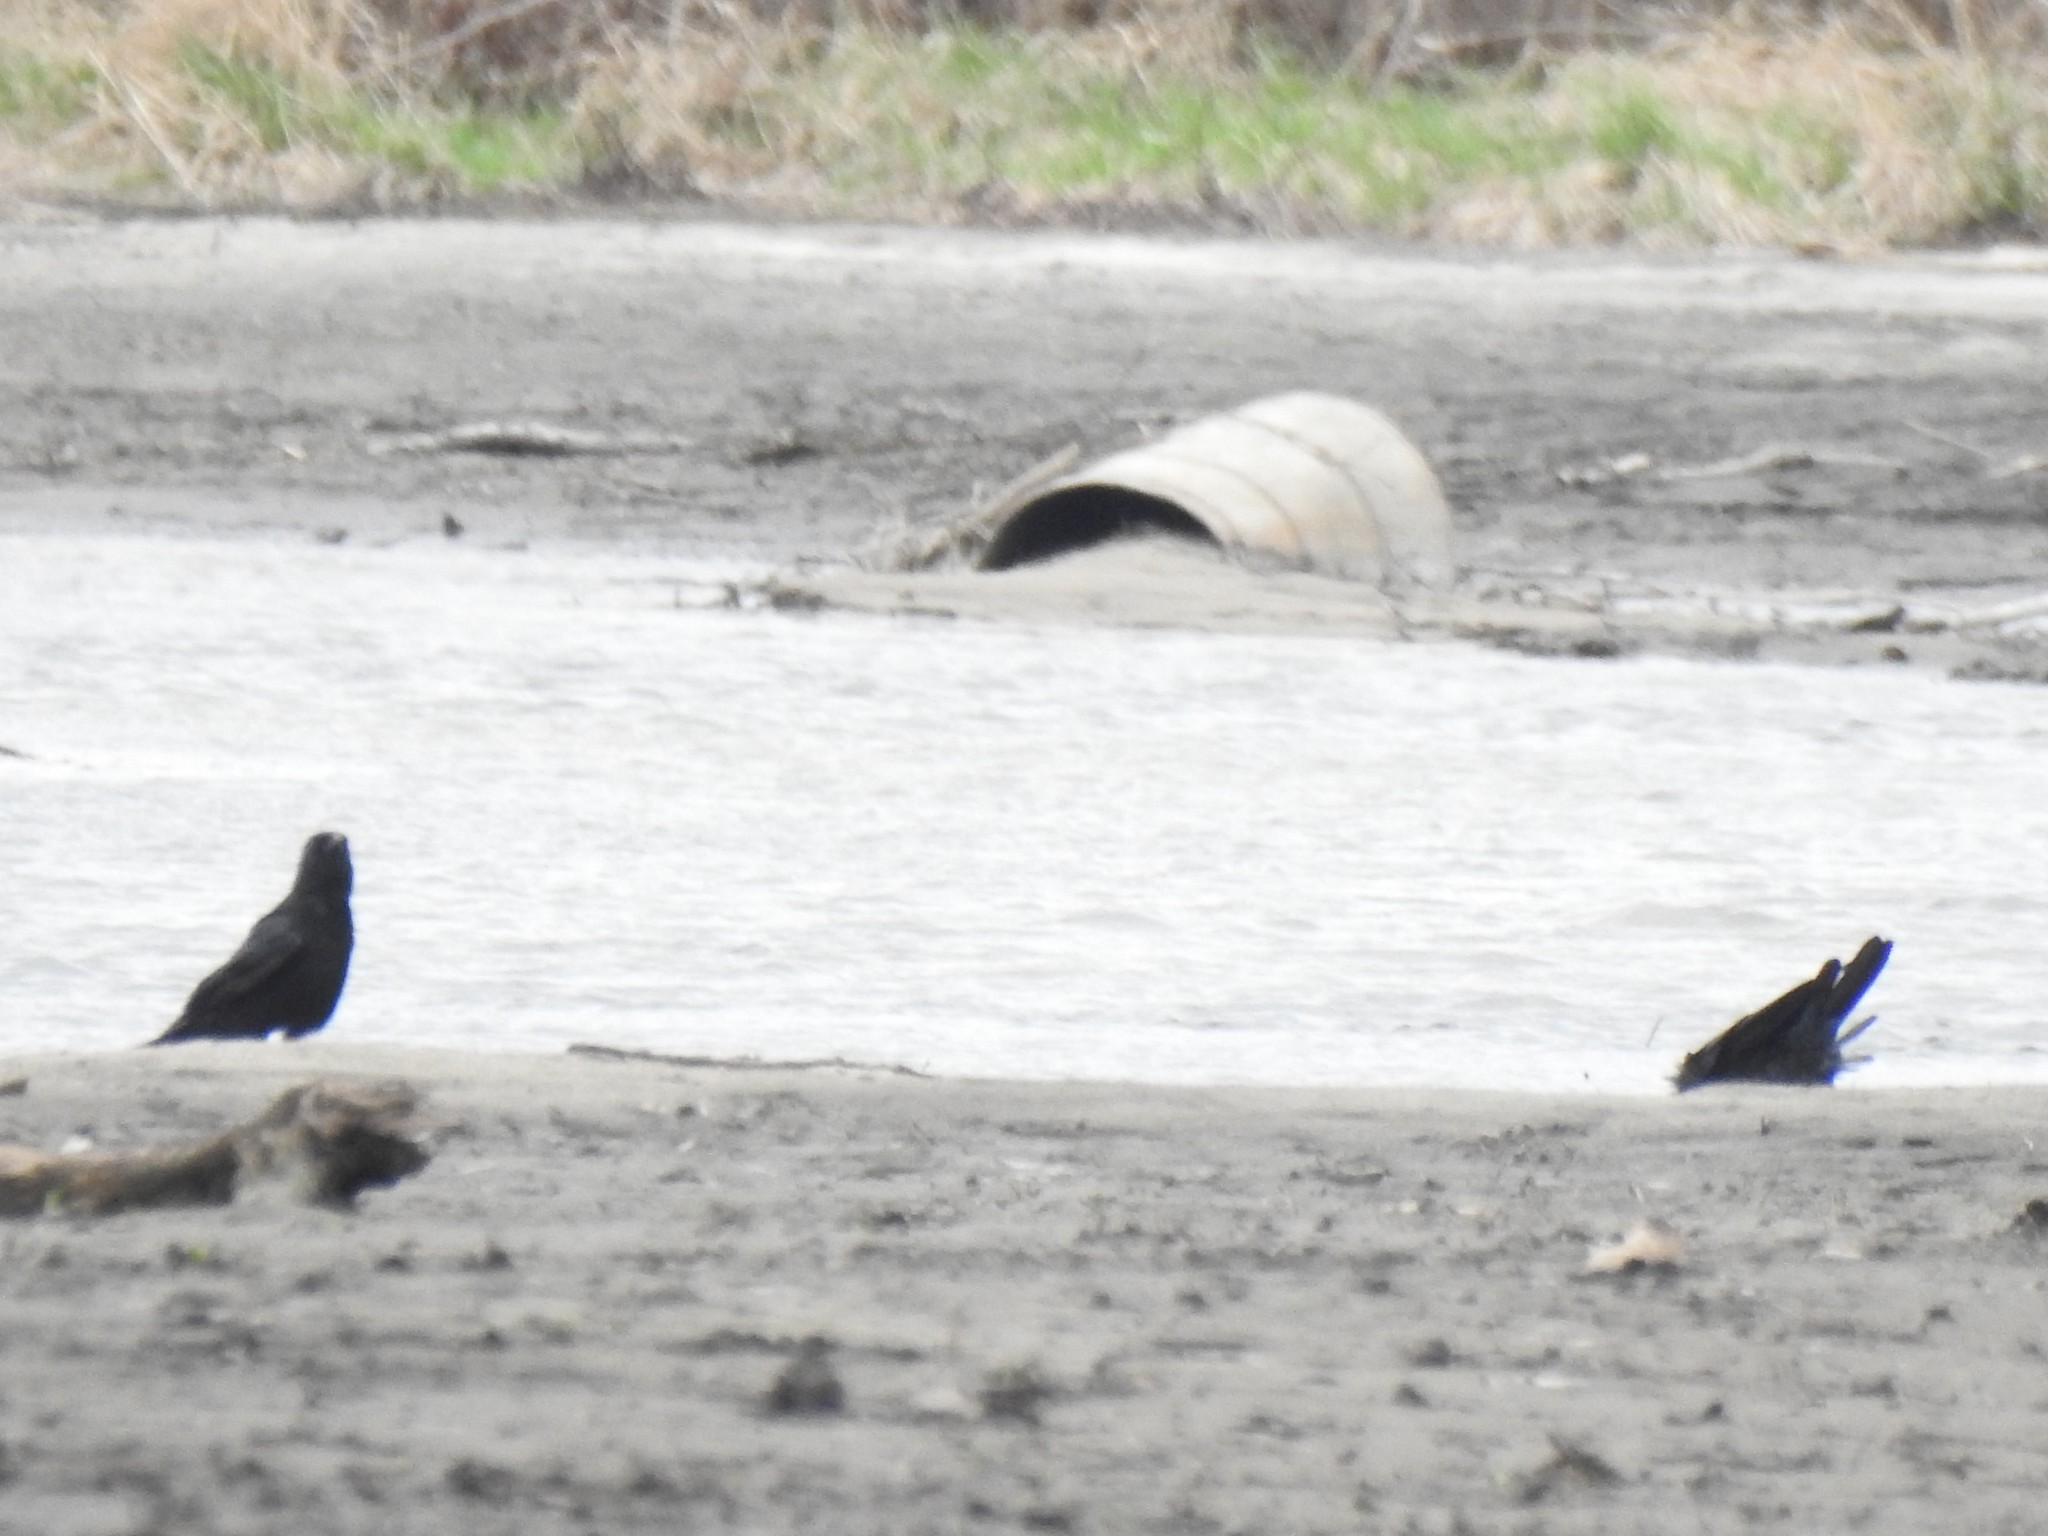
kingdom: Animalia
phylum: Chordata
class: Aves
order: Passeriformes
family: Corvidae
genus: Corvus
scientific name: Corvus brachyrhynchos
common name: American crow
